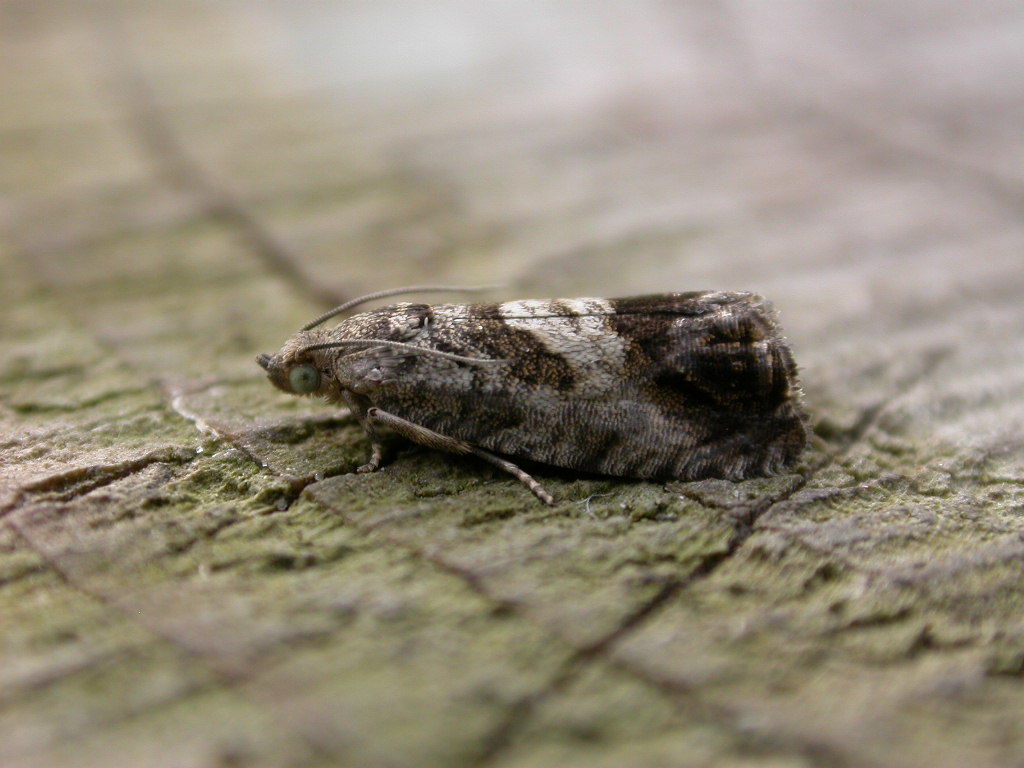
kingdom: Animalia
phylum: Arthropoda
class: Insecta
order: Lepidoptera
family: Tortricidae
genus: Cydia
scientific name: Cydia splendana
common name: De: kastanienwickler, eichenwickler es: oruga de la castaña fr: carpocapse des châtaignes it: cidia o tortrice tardiva delle castagne pt: bichado das castanhas gb: acorn moth, chestnut fruit tortrix
